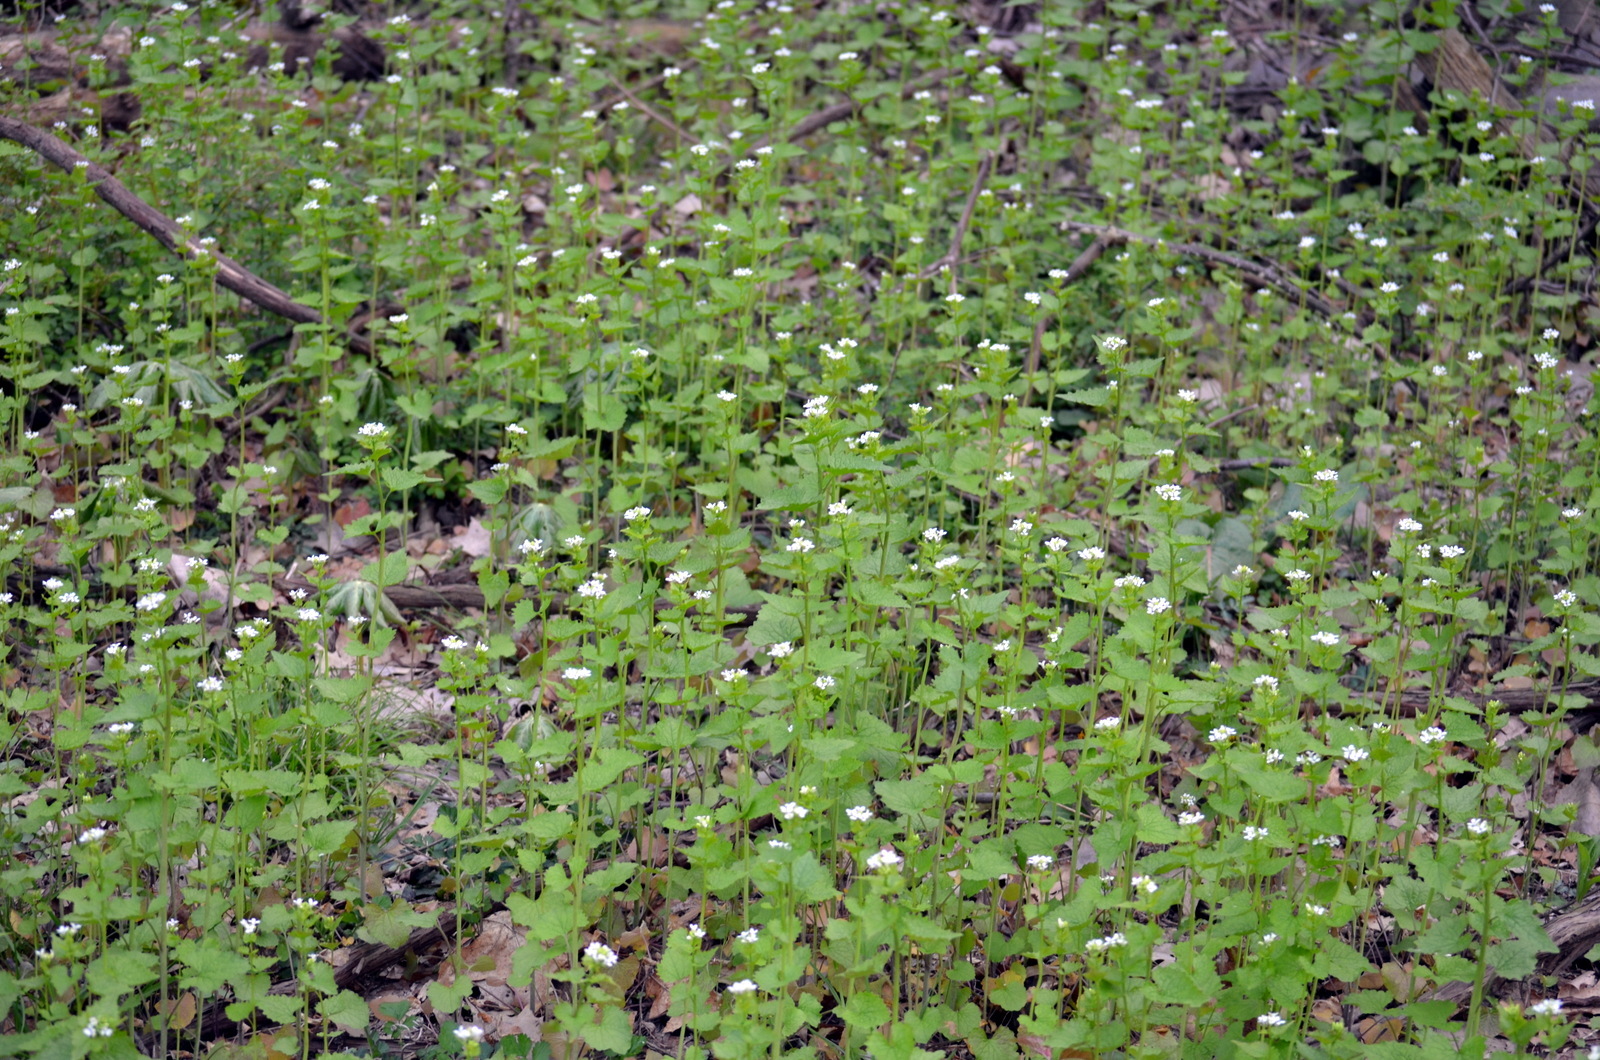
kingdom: Plantae
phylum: Tracheophyta
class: Magnoliopsida
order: Brassicales
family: Brassicaceae
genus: Alliaria
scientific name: Alliaria petiolata
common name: Garlic mustard
